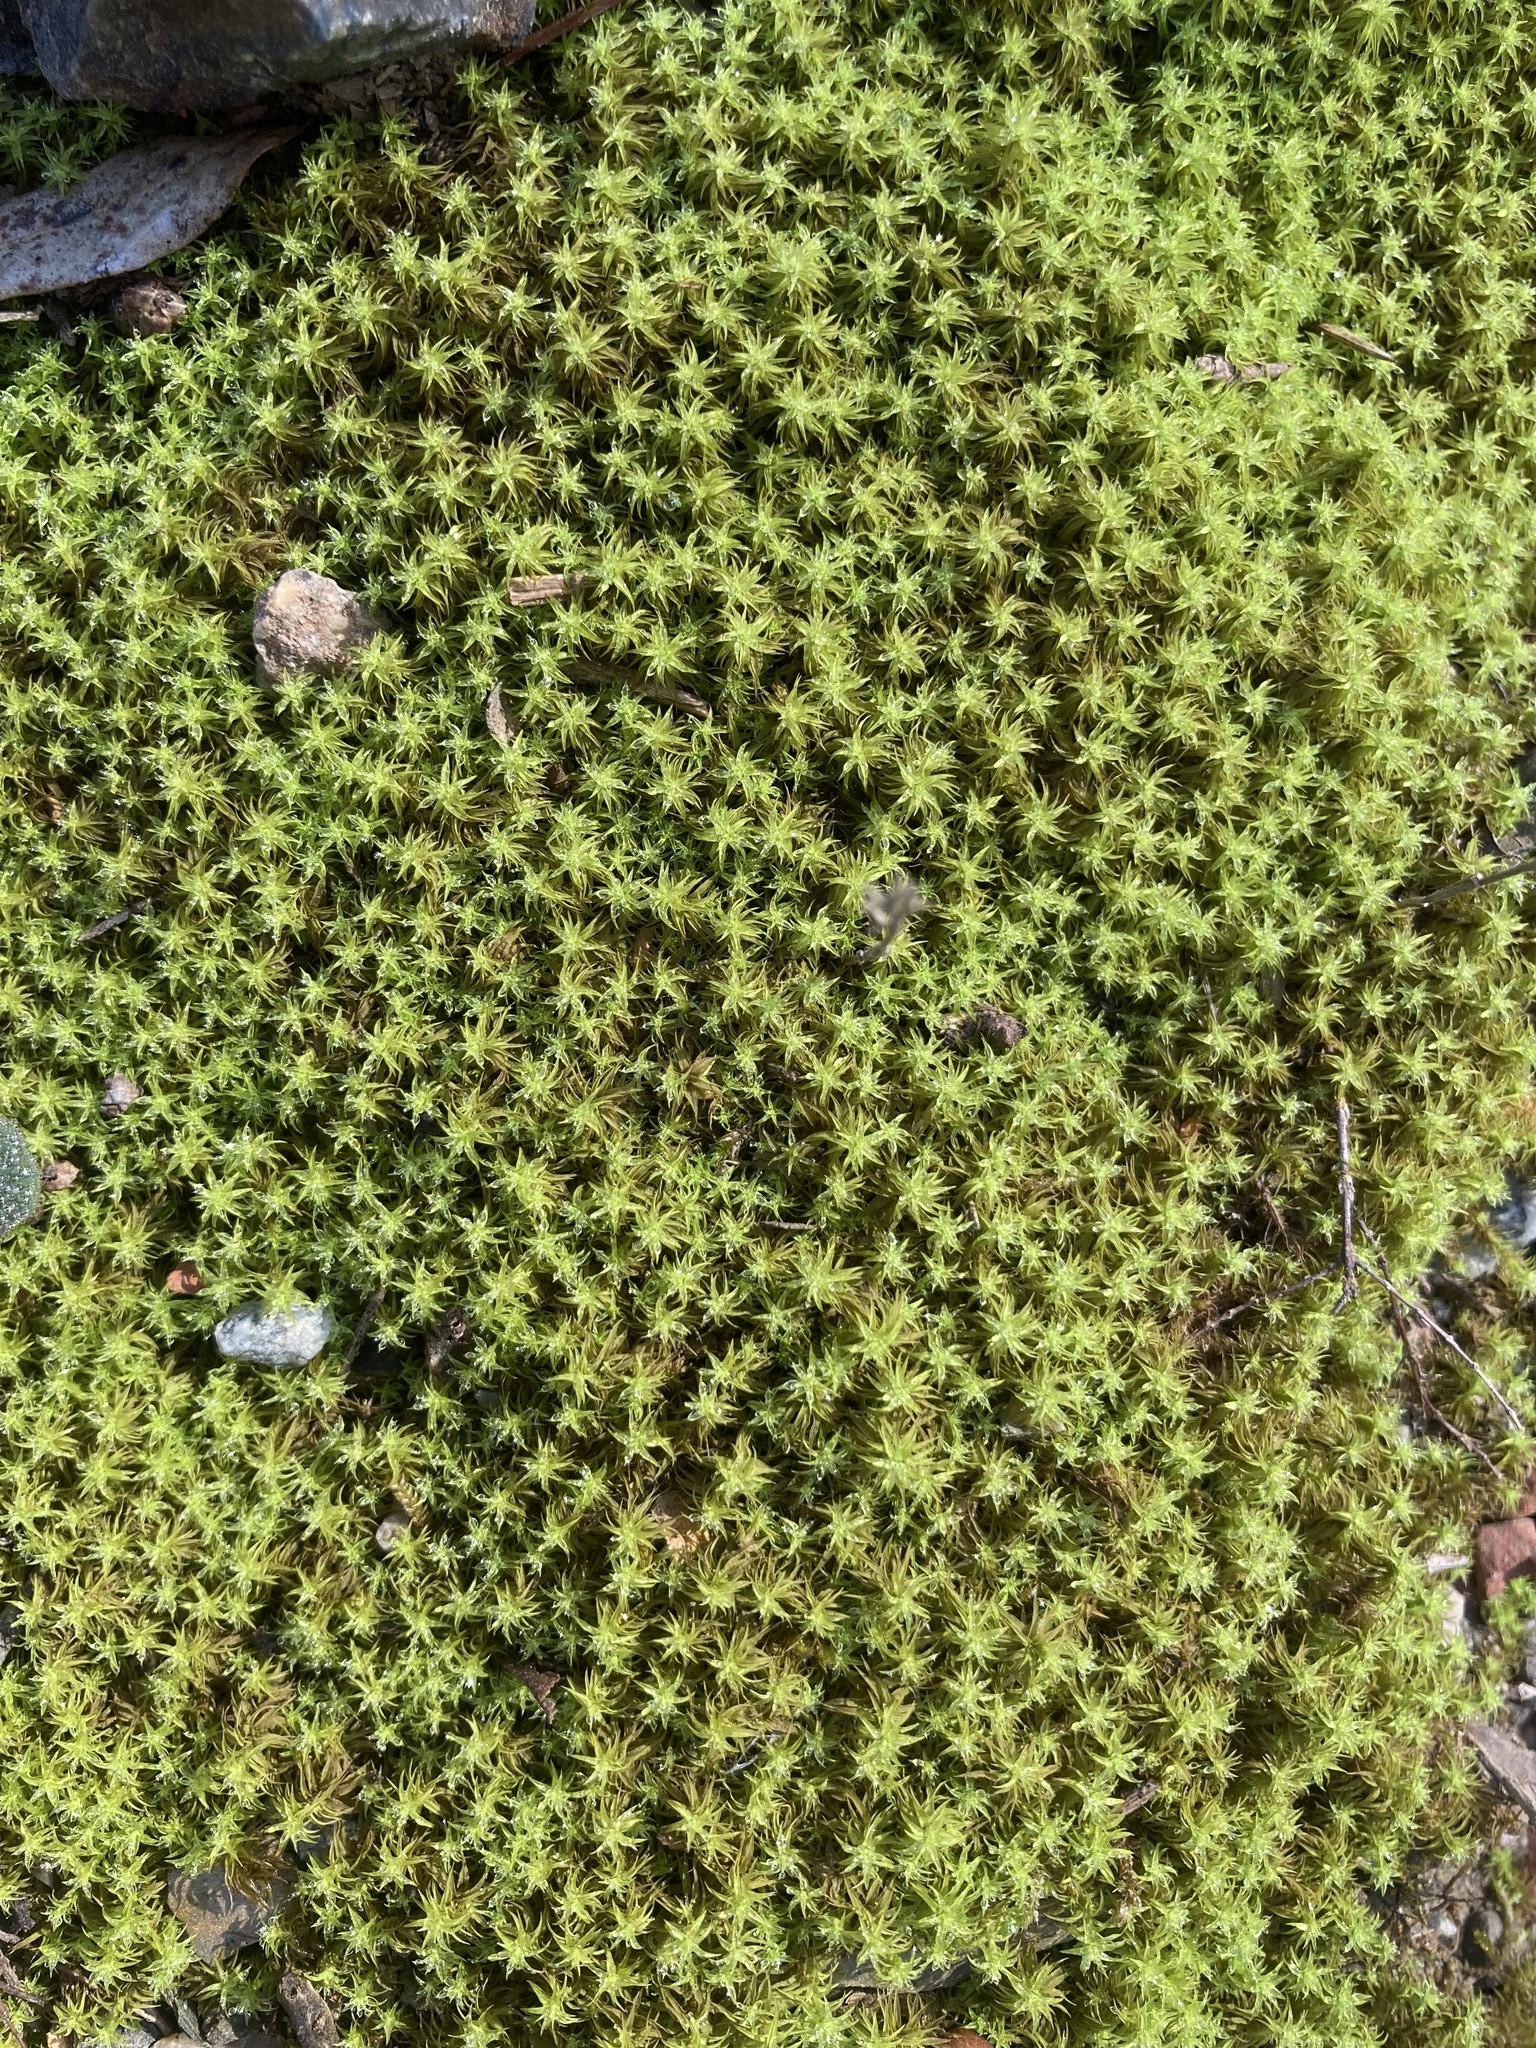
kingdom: Plantae
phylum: Bryophyta
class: Bryopsida
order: Pottiales
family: Pottiaceae
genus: Pleurochaete
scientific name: Pleurochaete squarrosa
